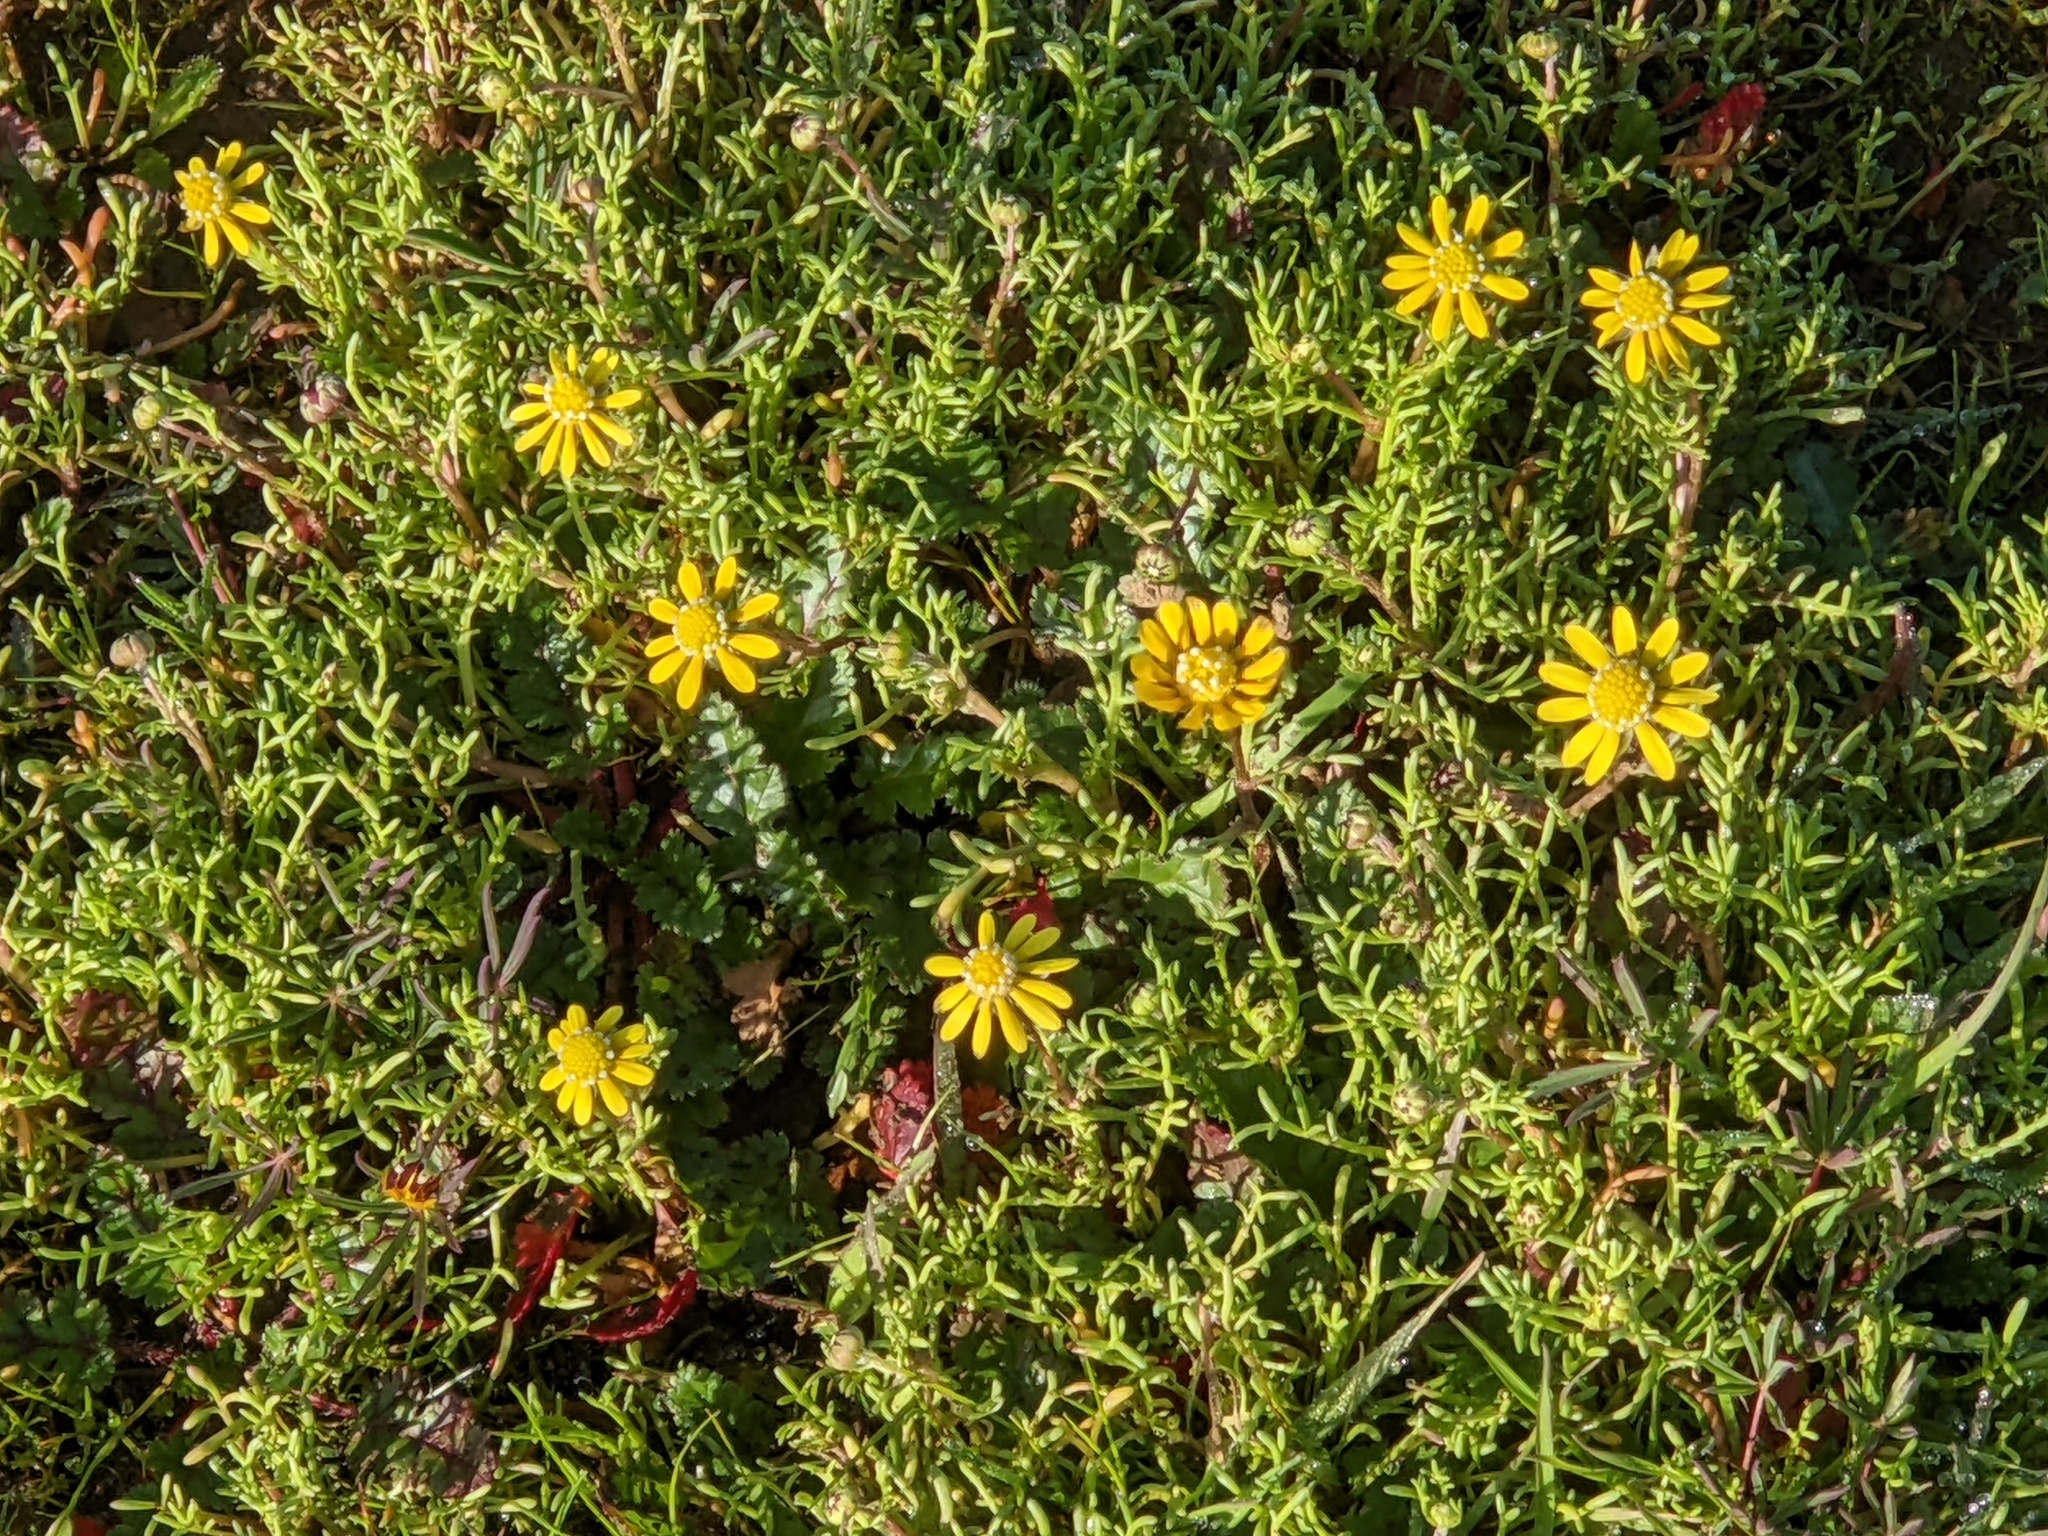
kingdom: Plantae
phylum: Tracheophyta
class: Magnoliopsida
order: Asterales
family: Asteraceae
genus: Blennosperma
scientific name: Blennosperma nanum
